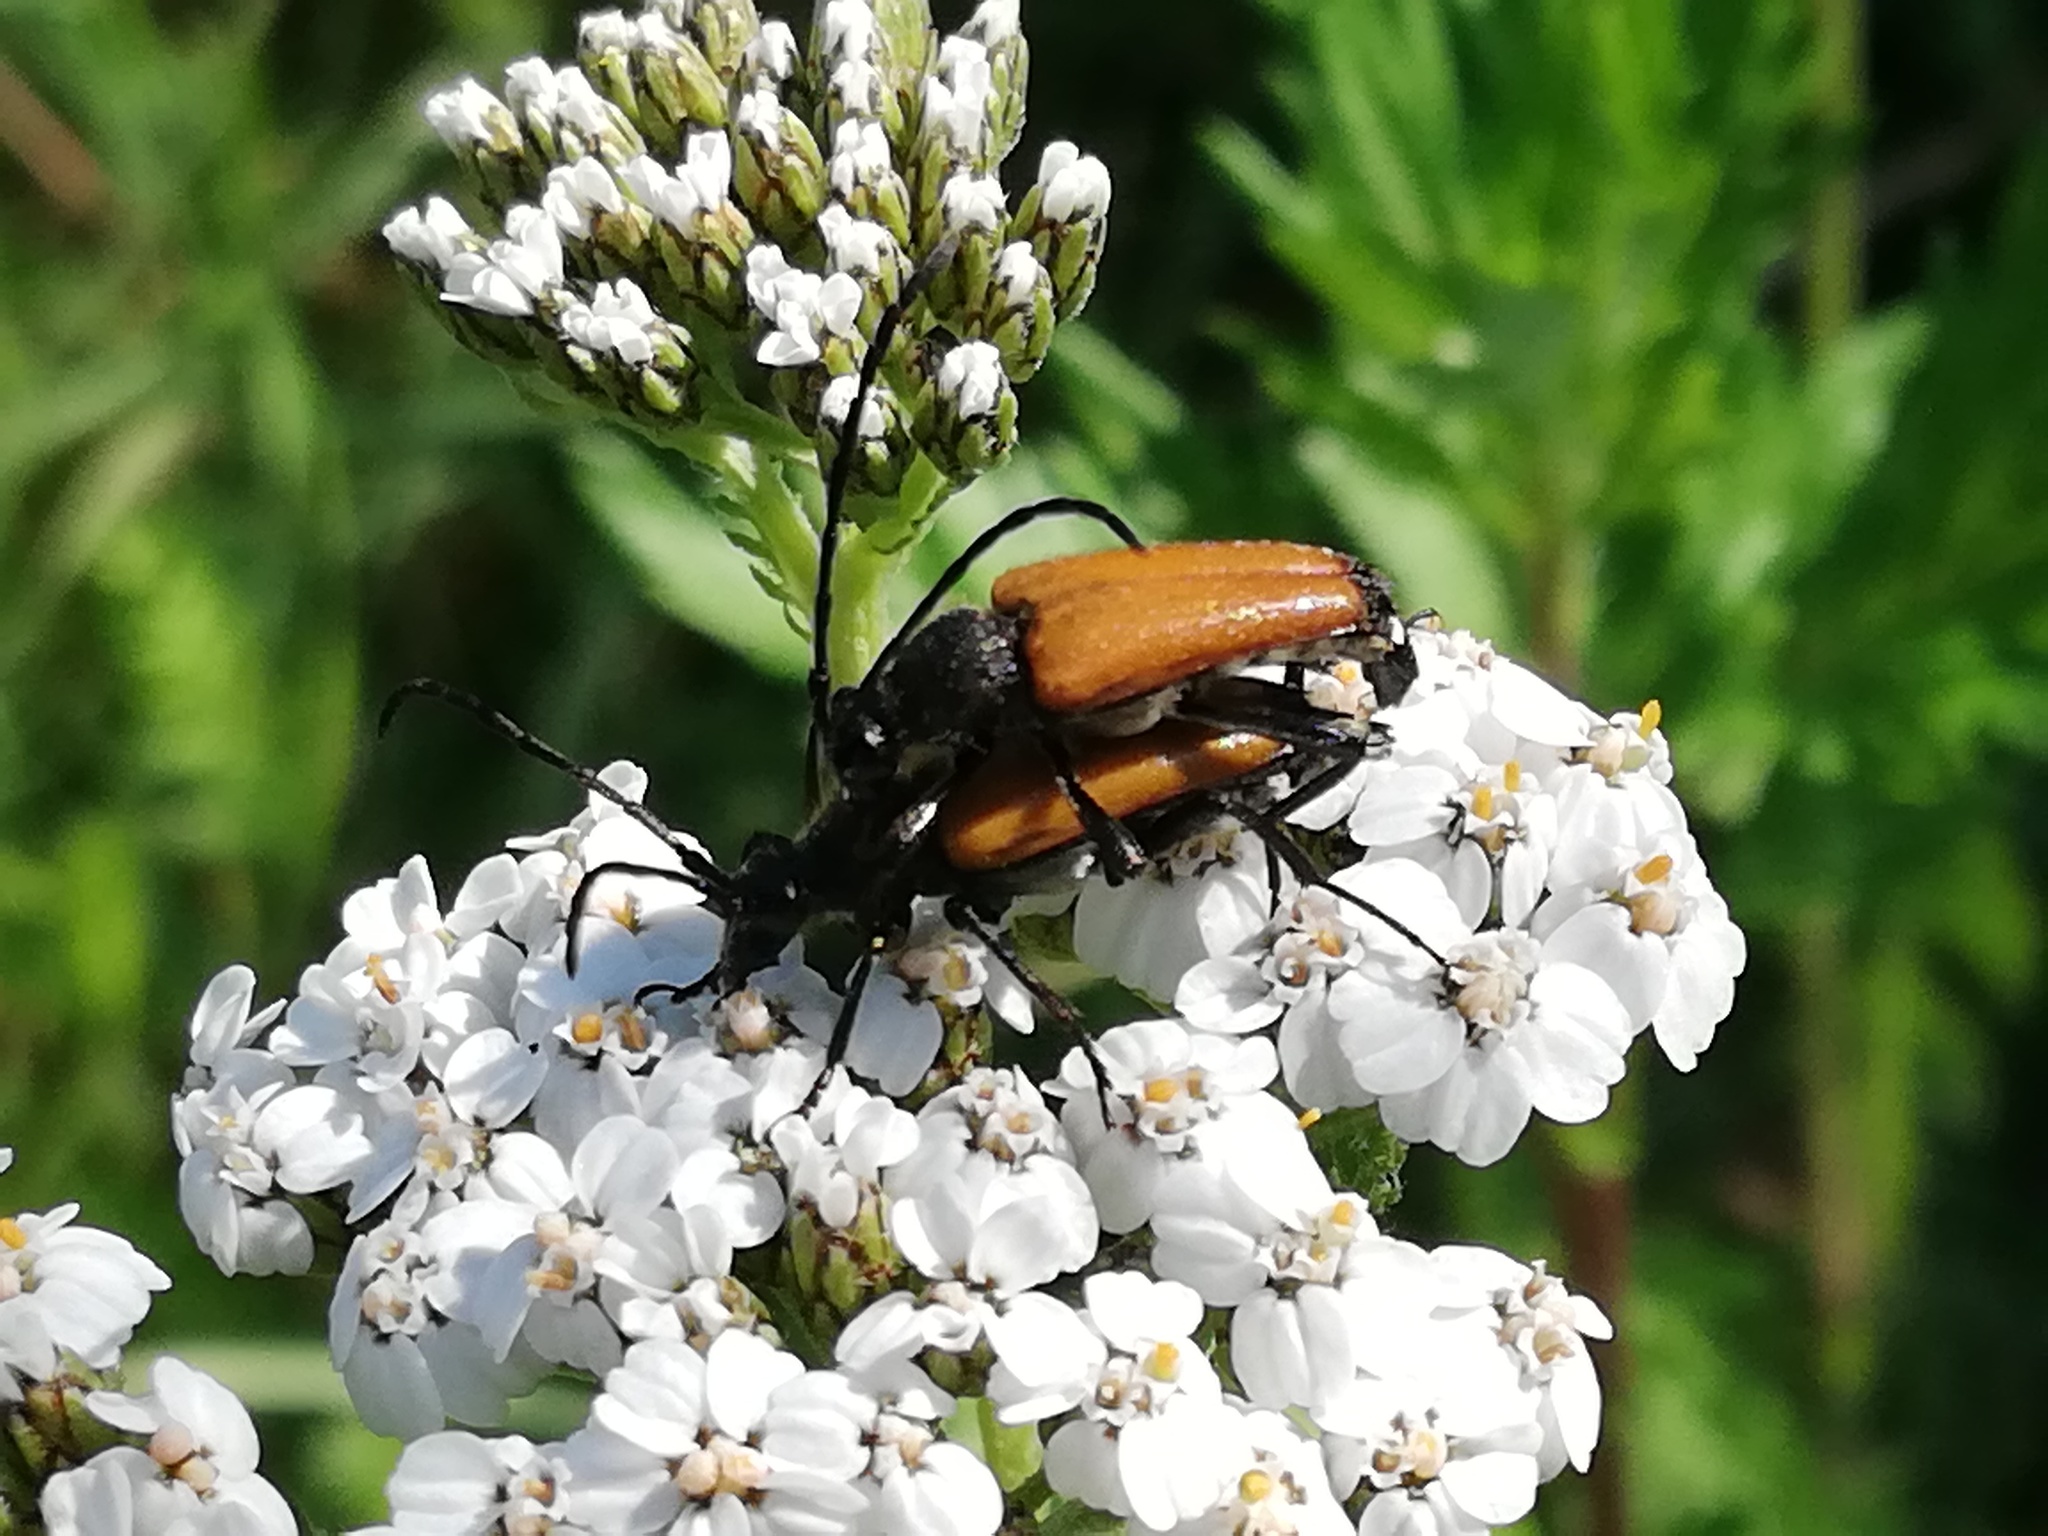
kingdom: Animalia
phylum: Arthropoda
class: Insecta
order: Coleoptera
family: Cerambycidae
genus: Paracorymbia
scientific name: Paracorymbia fulva
